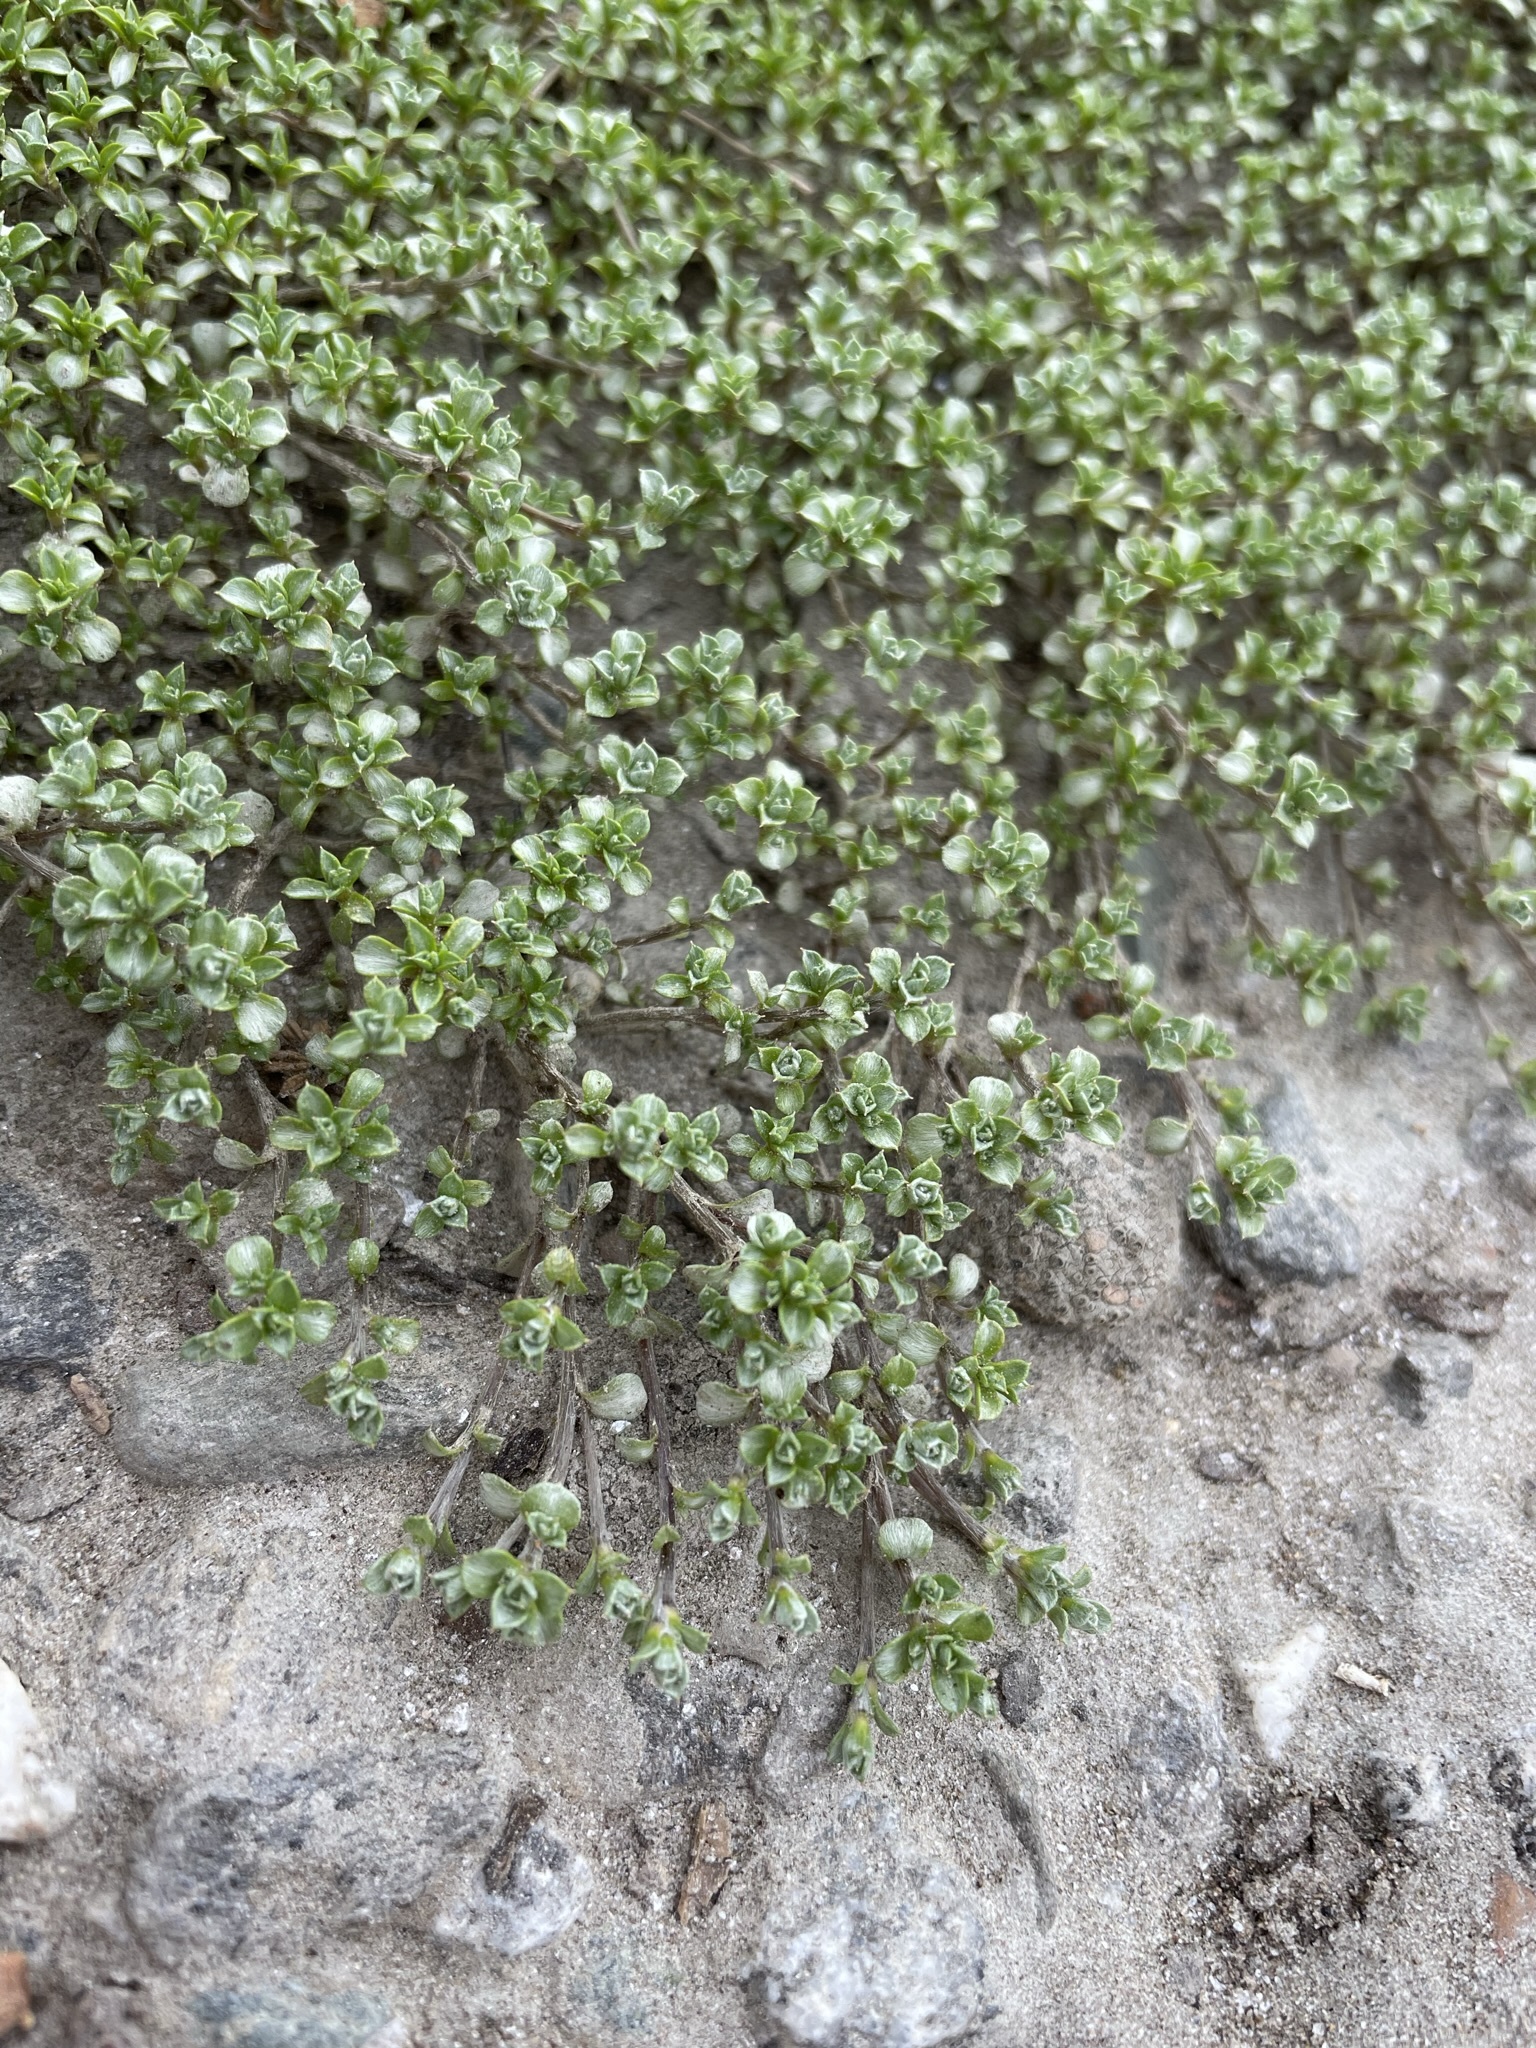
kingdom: Plantae
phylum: Tracheophyta
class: Magnoliopsida
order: Asterales
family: Asteraceae
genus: Raoulia
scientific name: Raoulia tenuicaulis
